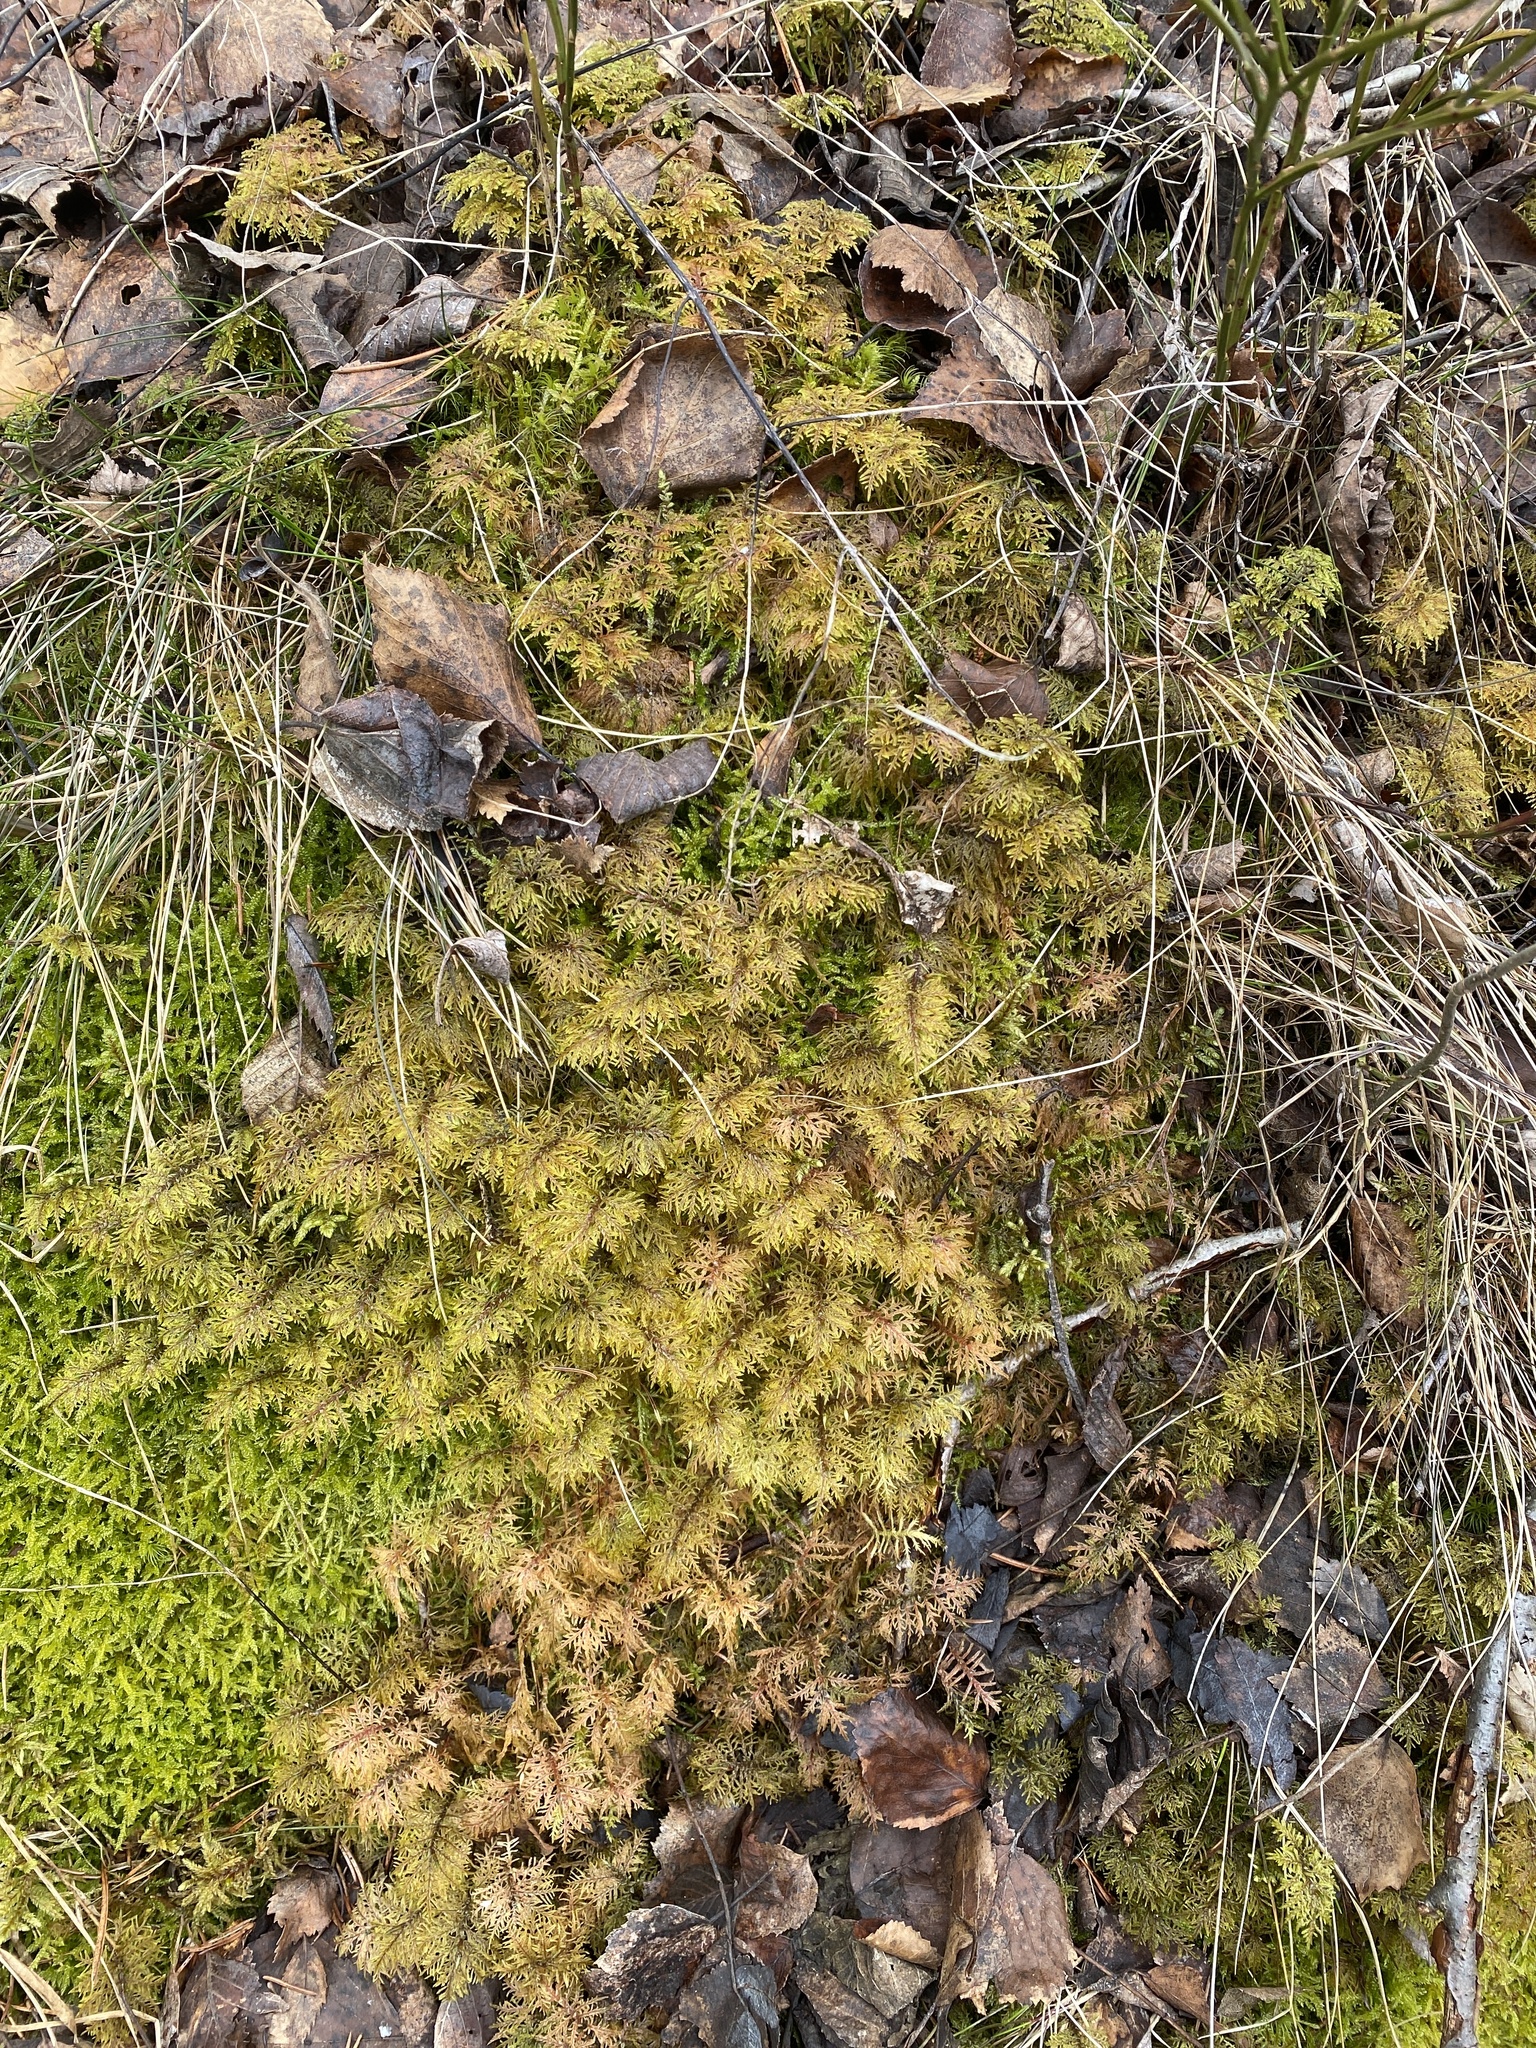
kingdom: Plantae
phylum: Bryophyta
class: Bryopsida
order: Hypnales
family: Hylocomiaceae
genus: Hylocomium
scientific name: Hylocomium splendens
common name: Stairstep moss
